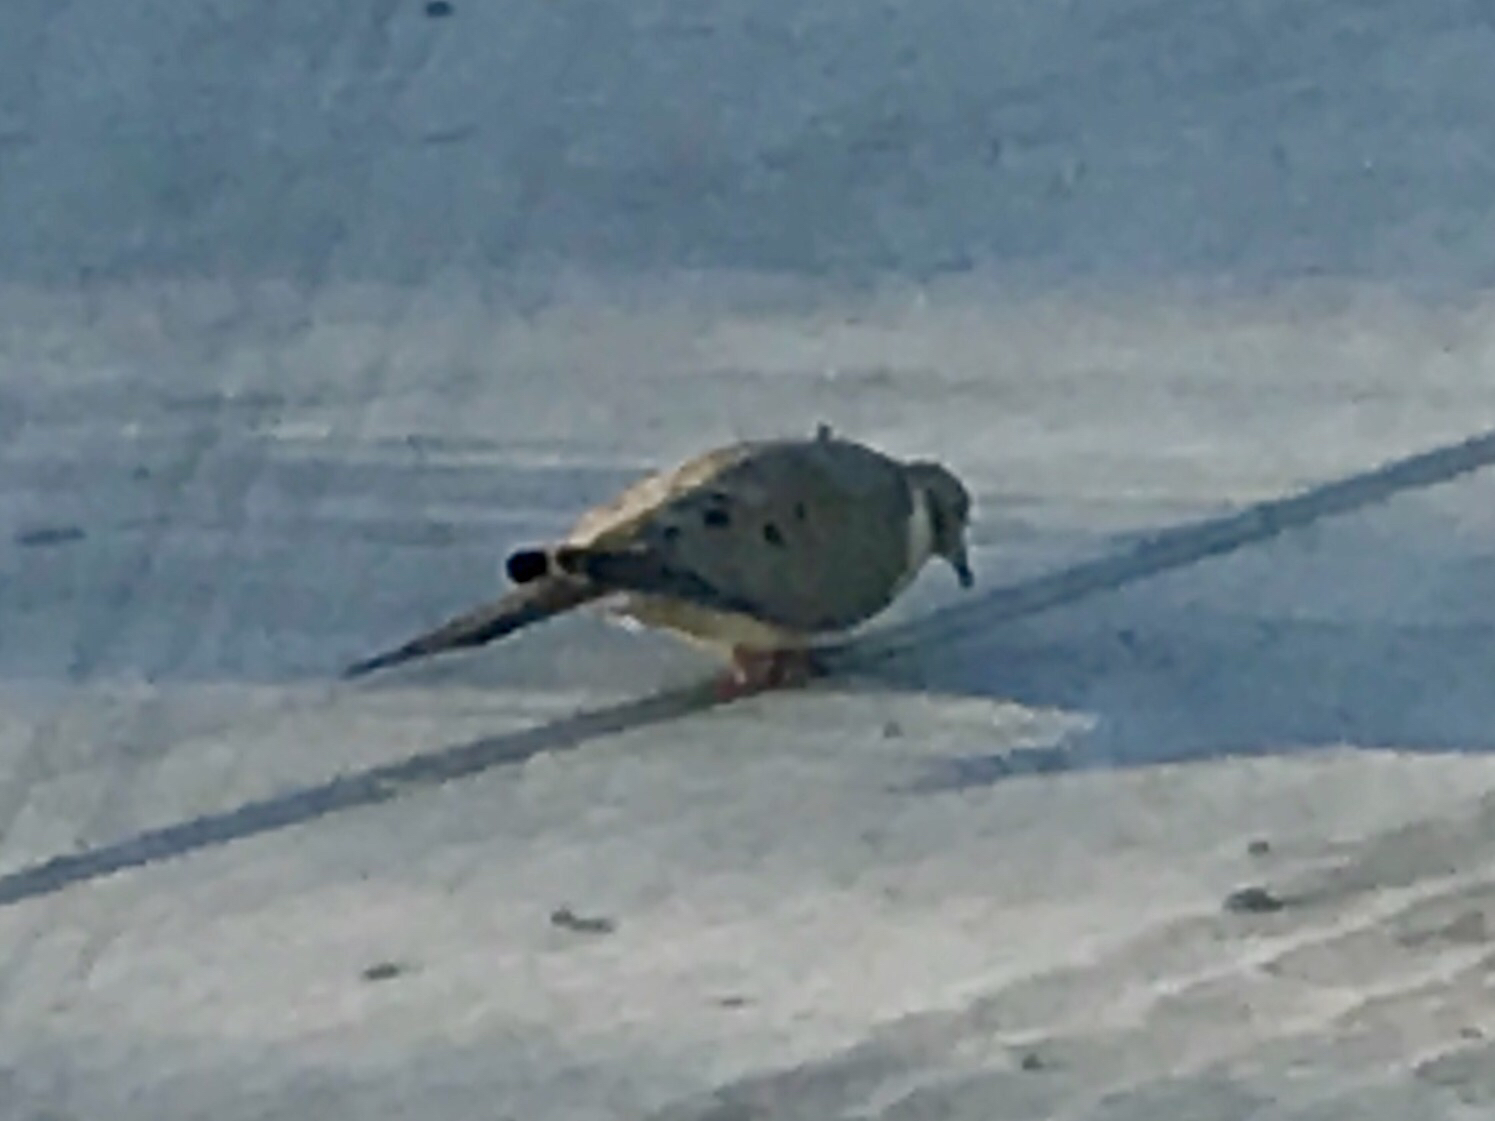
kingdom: Animalia
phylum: Chordata
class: Aves
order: Columbiformes
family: Columbidae
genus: Zenaida
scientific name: Zenaida macroura
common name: Mourning dove
